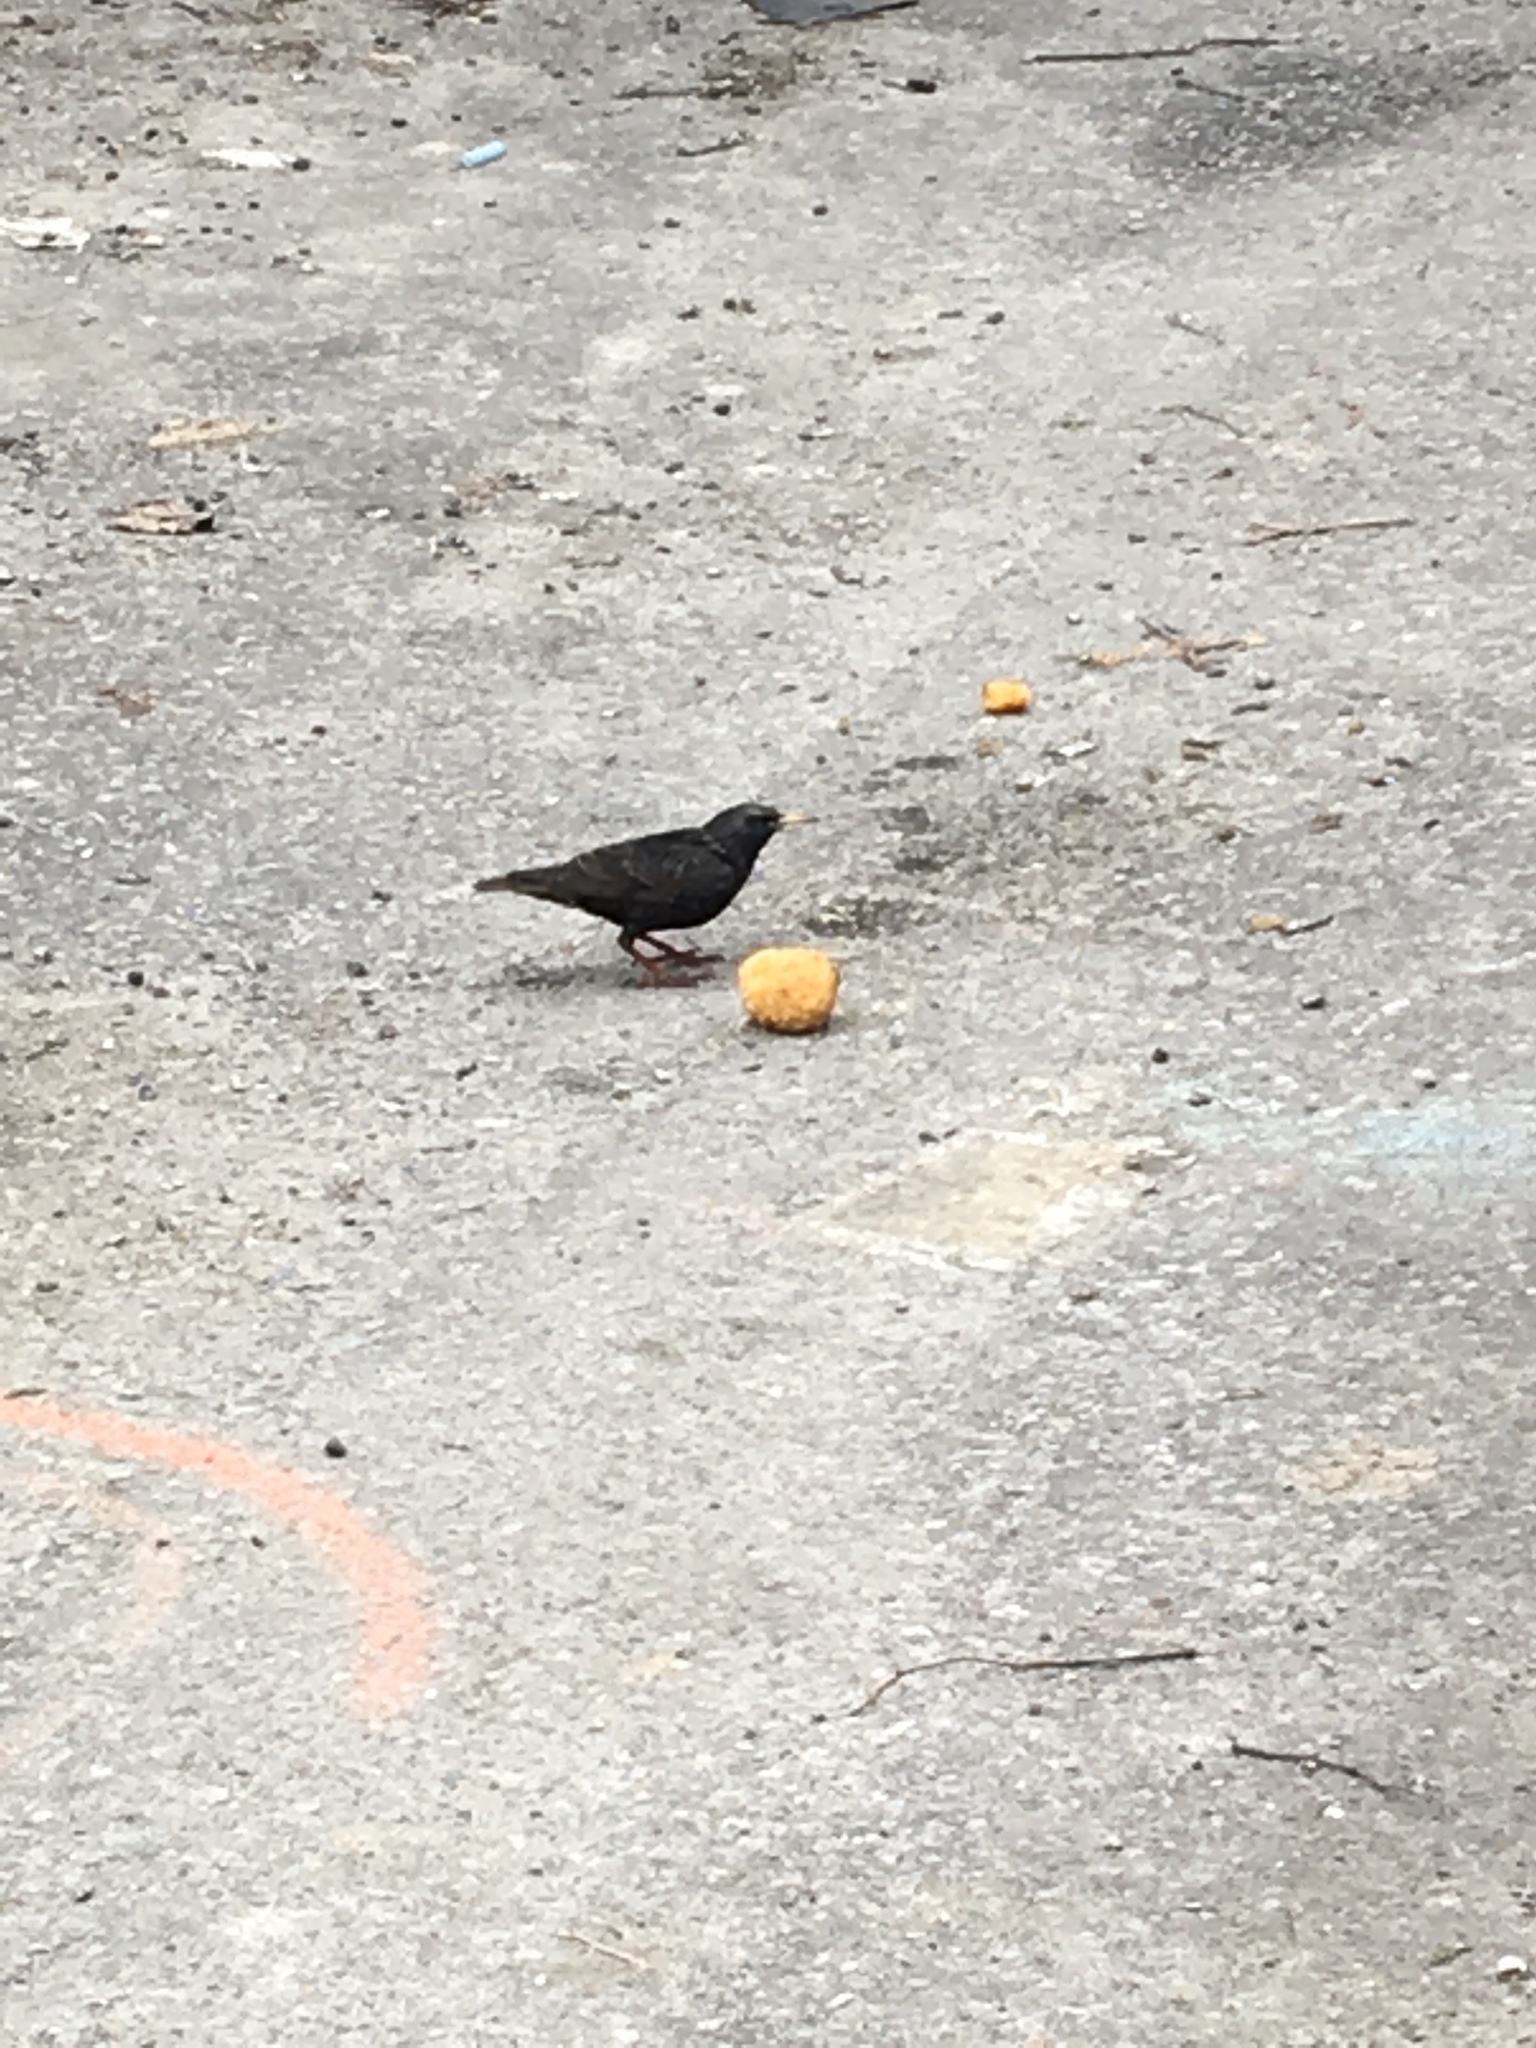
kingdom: Animalia
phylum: Chordata
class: Aves
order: Passeriformes
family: Sturnidae
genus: Sturnus
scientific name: Sturnus vulgaris
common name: Common starling
